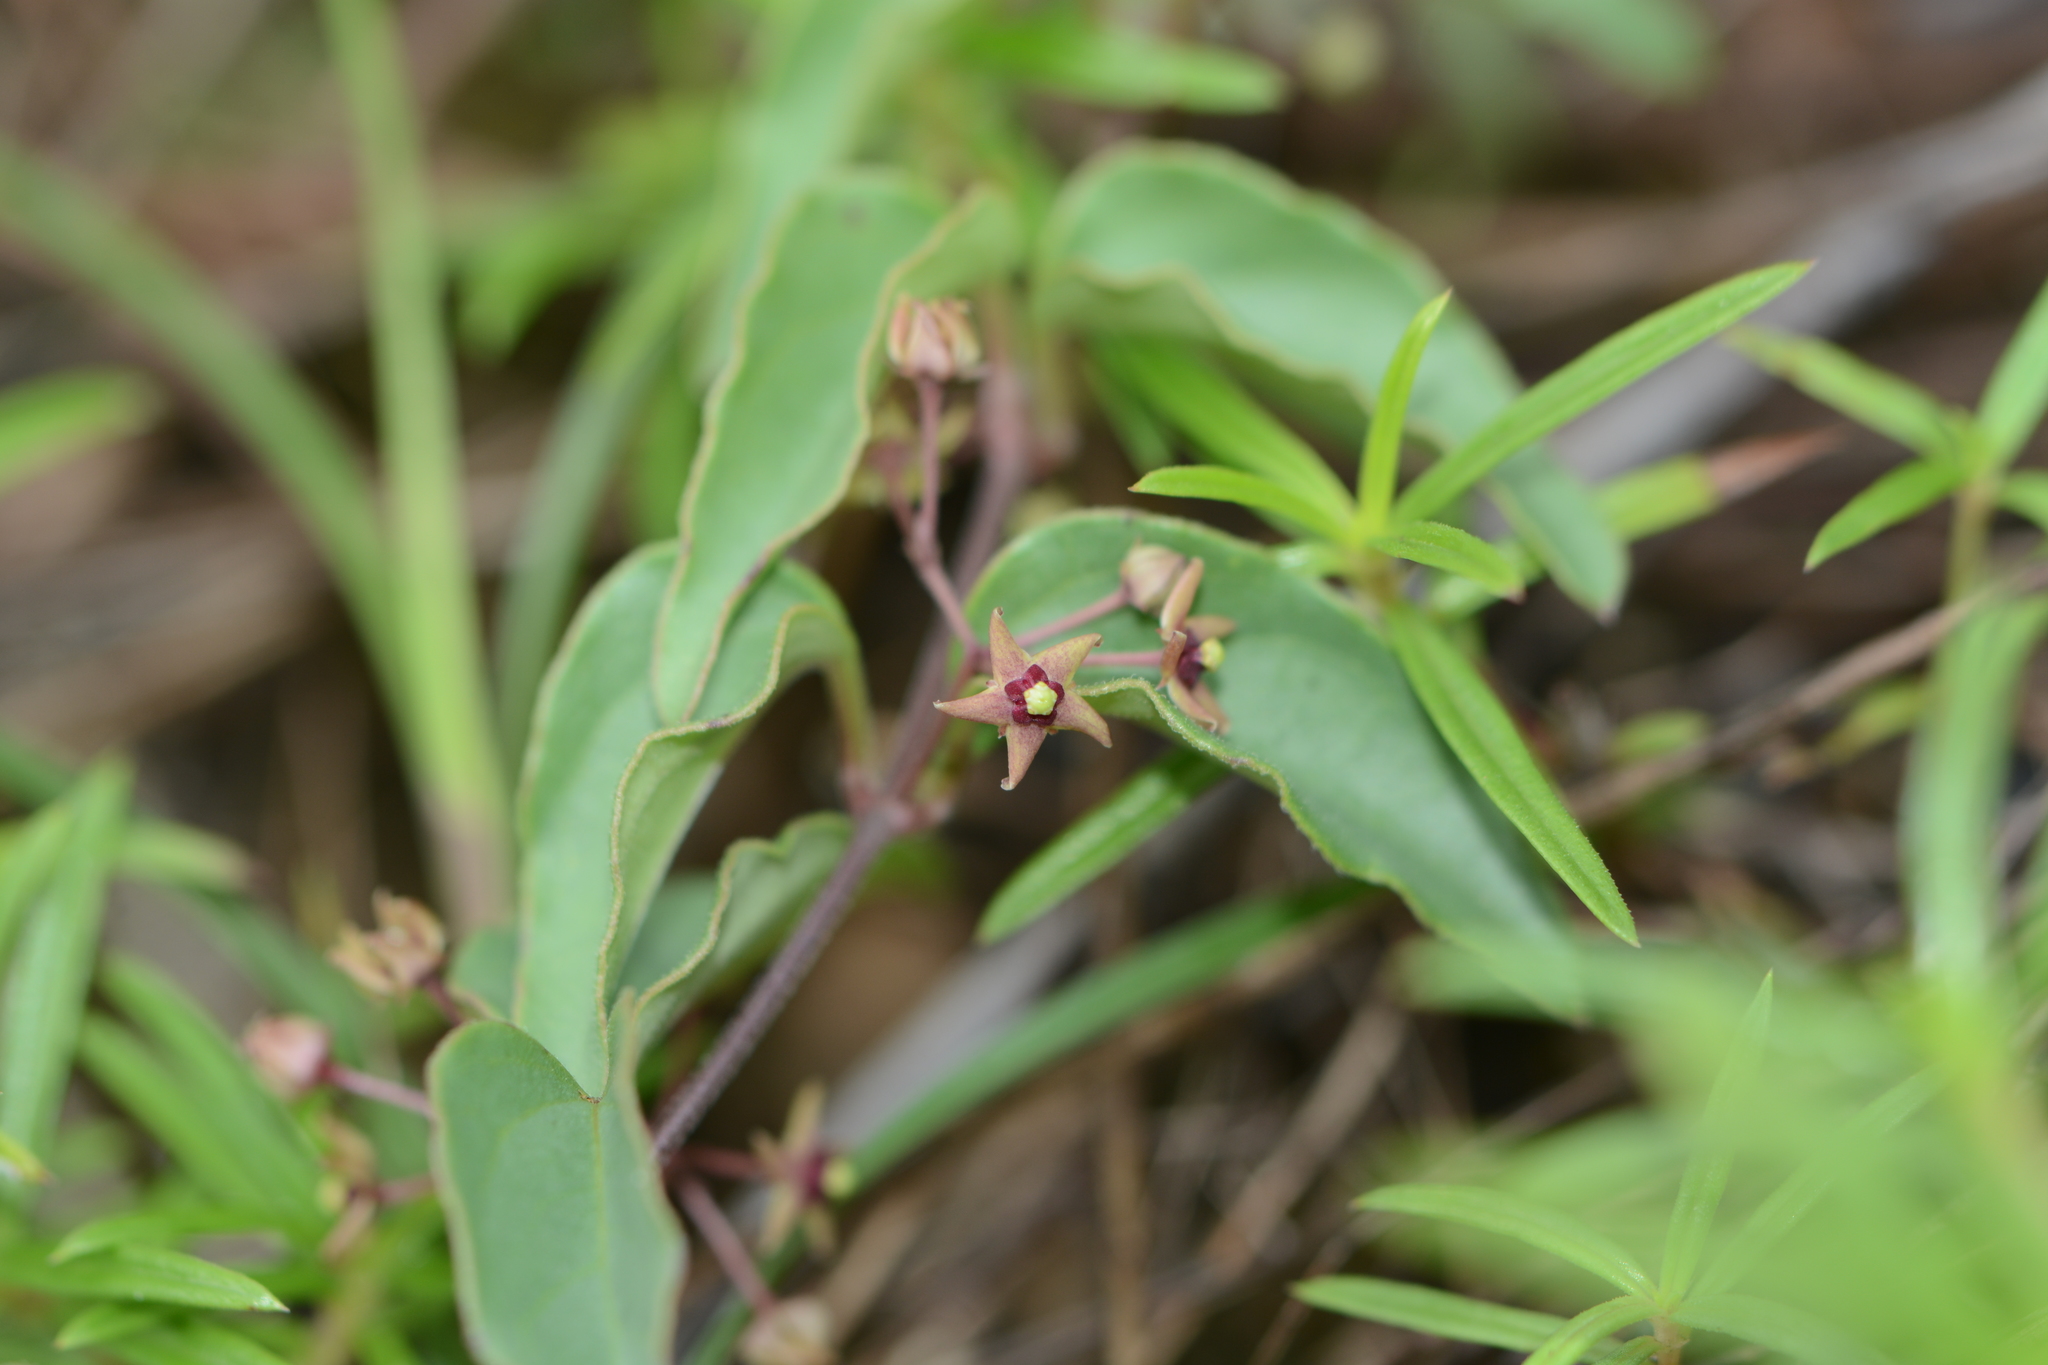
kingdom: Plantae
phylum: Tracheophyta
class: Magnoliopsida
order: Gentianales
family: Apocynaceae
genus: Vincetoxicum
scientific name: Vincetoxicum fasciculatum
